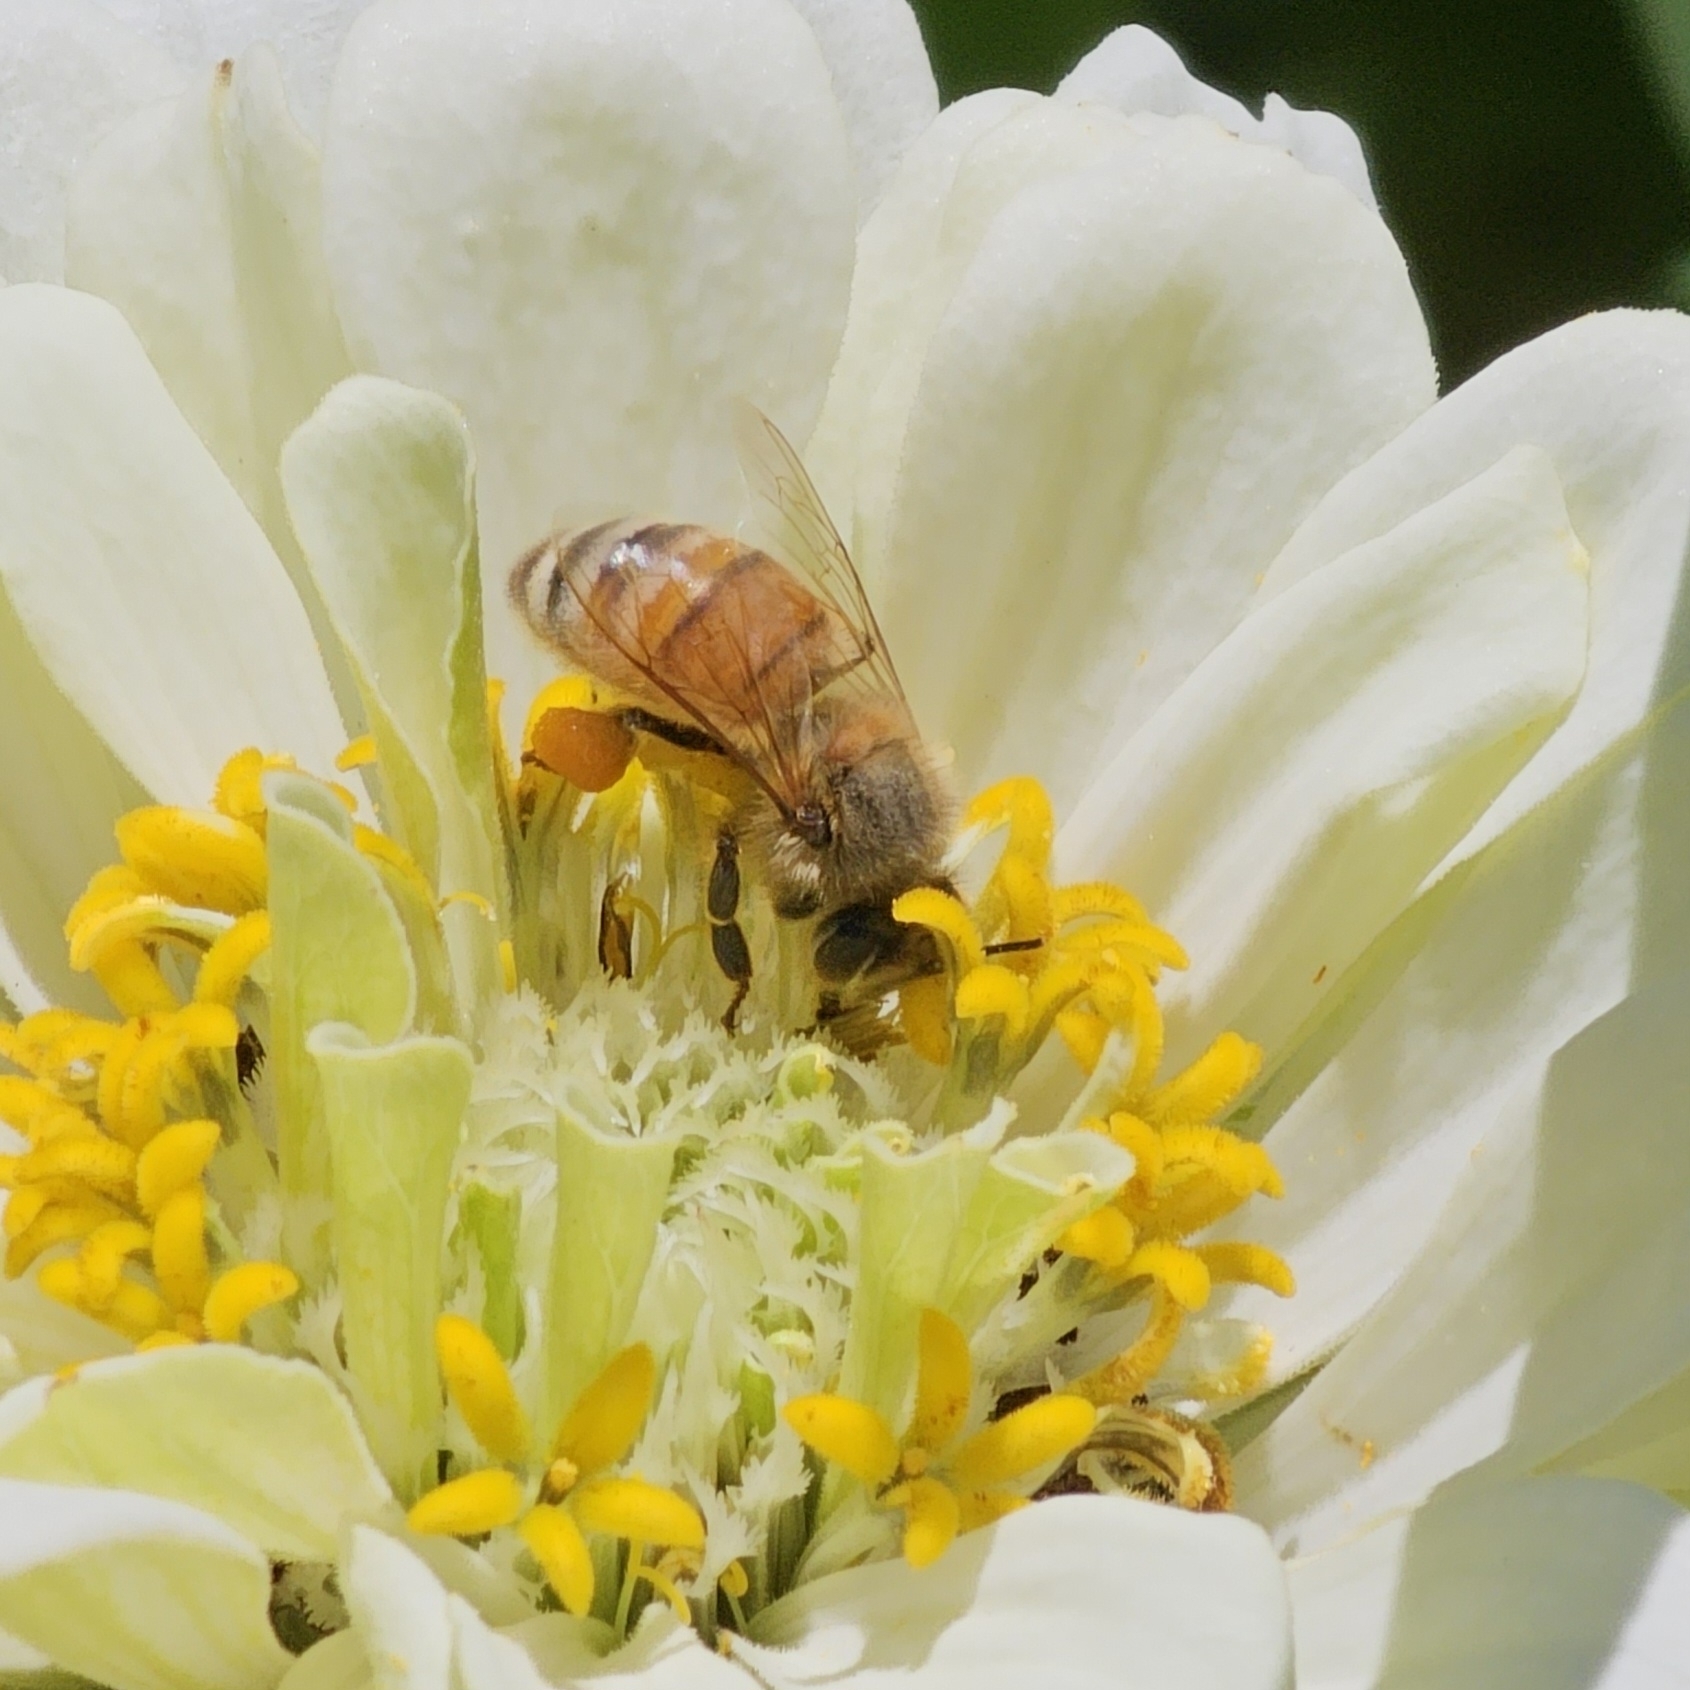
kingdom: Animalia
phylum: Arthropoda
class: Insecta
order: Hymenoptera
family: Apidae
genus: Apis
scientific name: Apis mellifera
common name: Honey bee
